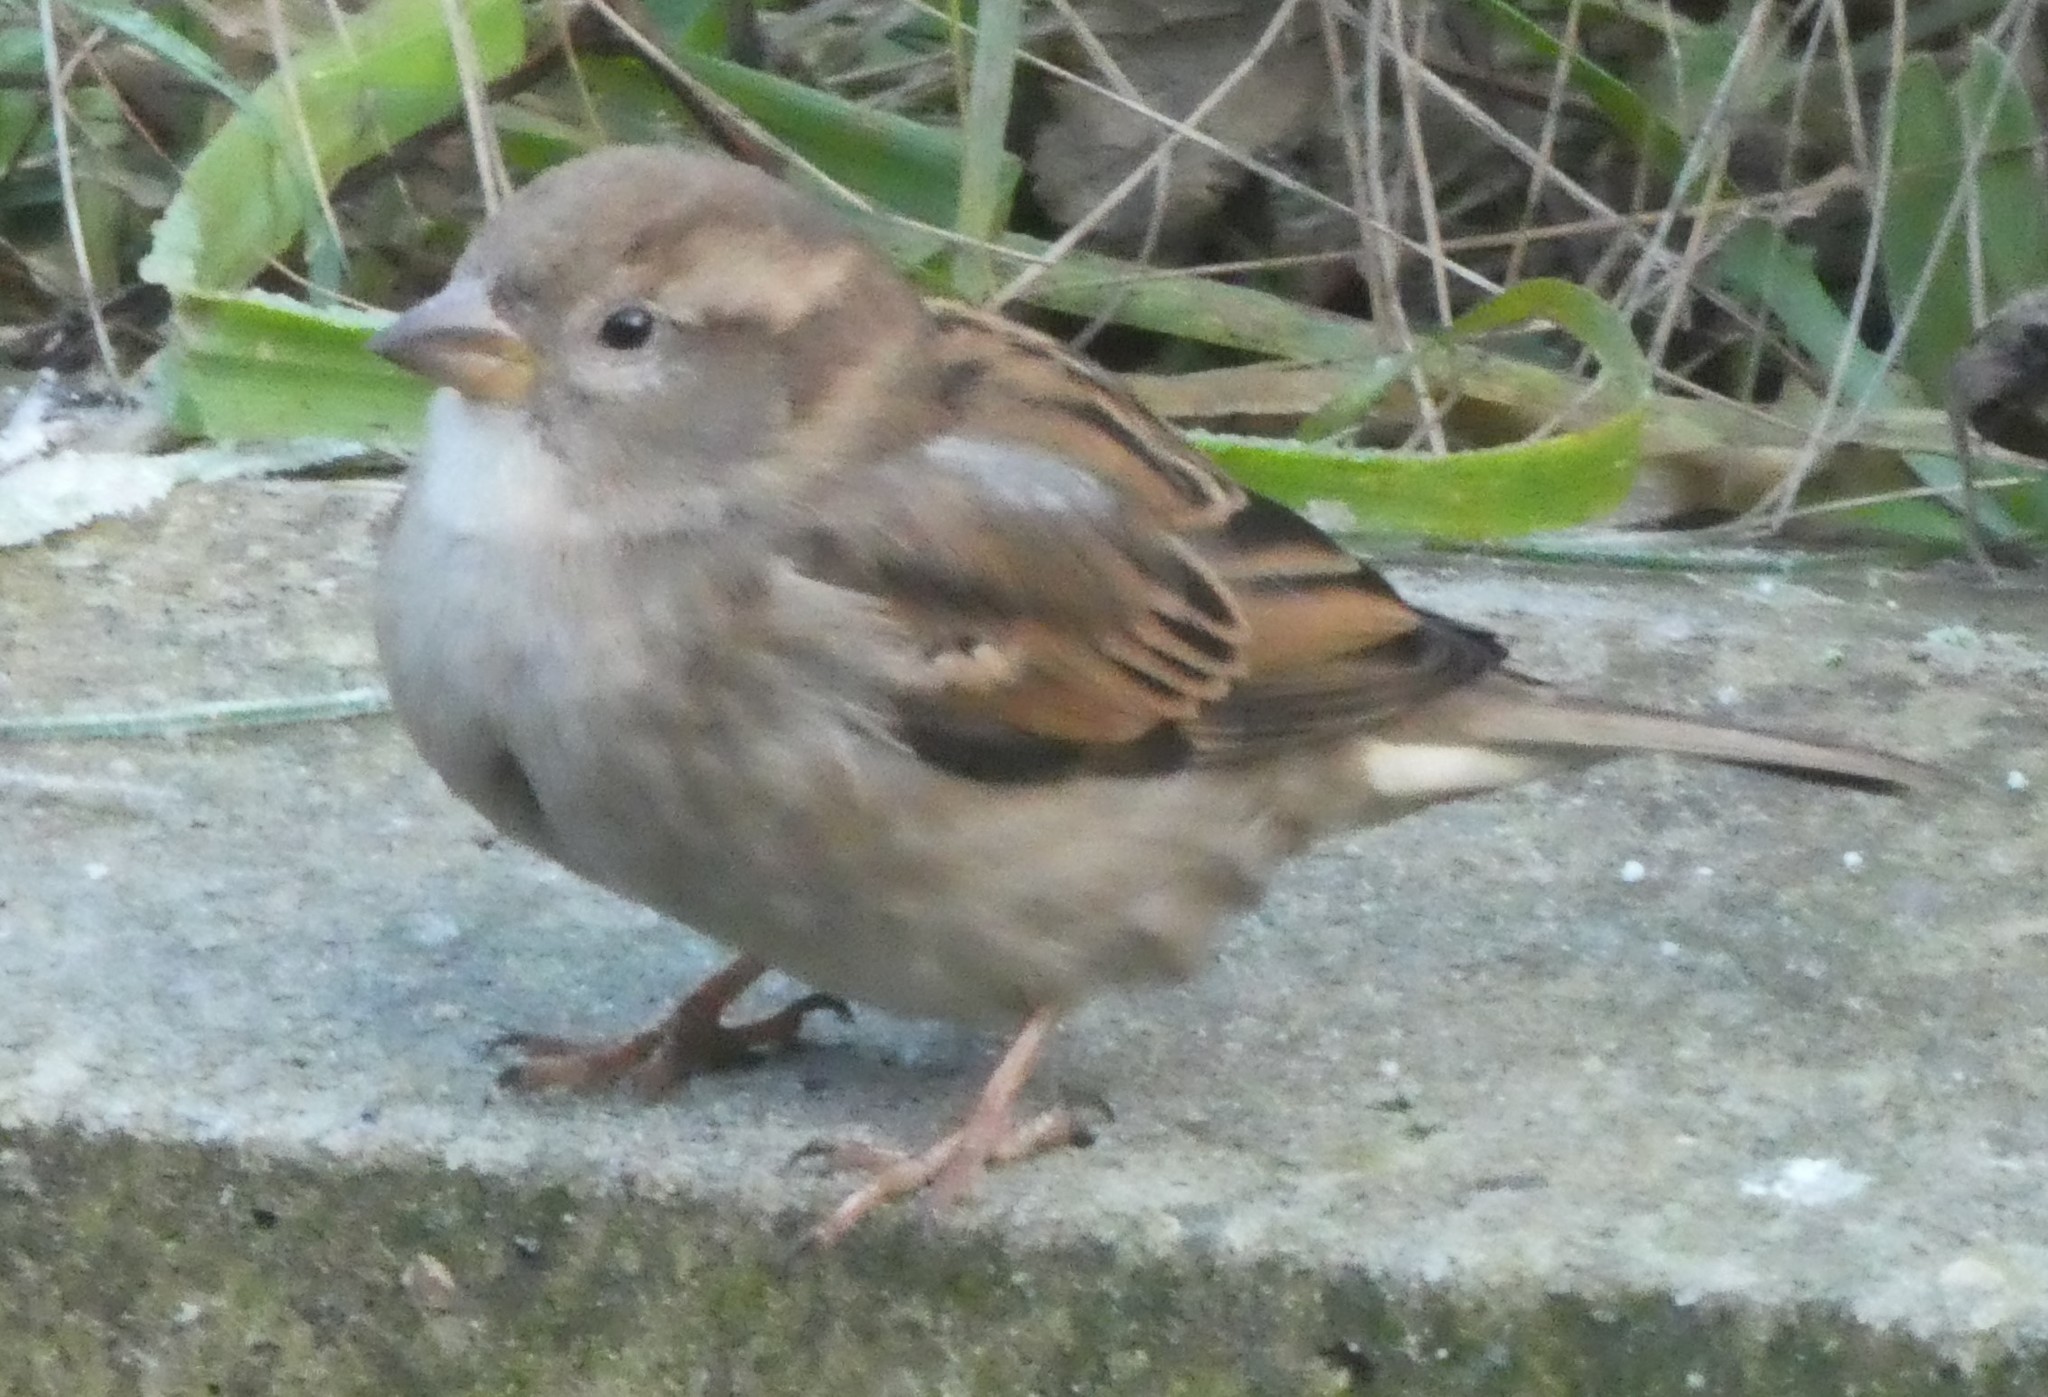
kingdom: Animalia
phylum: Chordata
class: Aves
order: Passeriformes
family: Passeridae
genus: Passer
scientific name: Passer domesticus
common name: House sparrow
